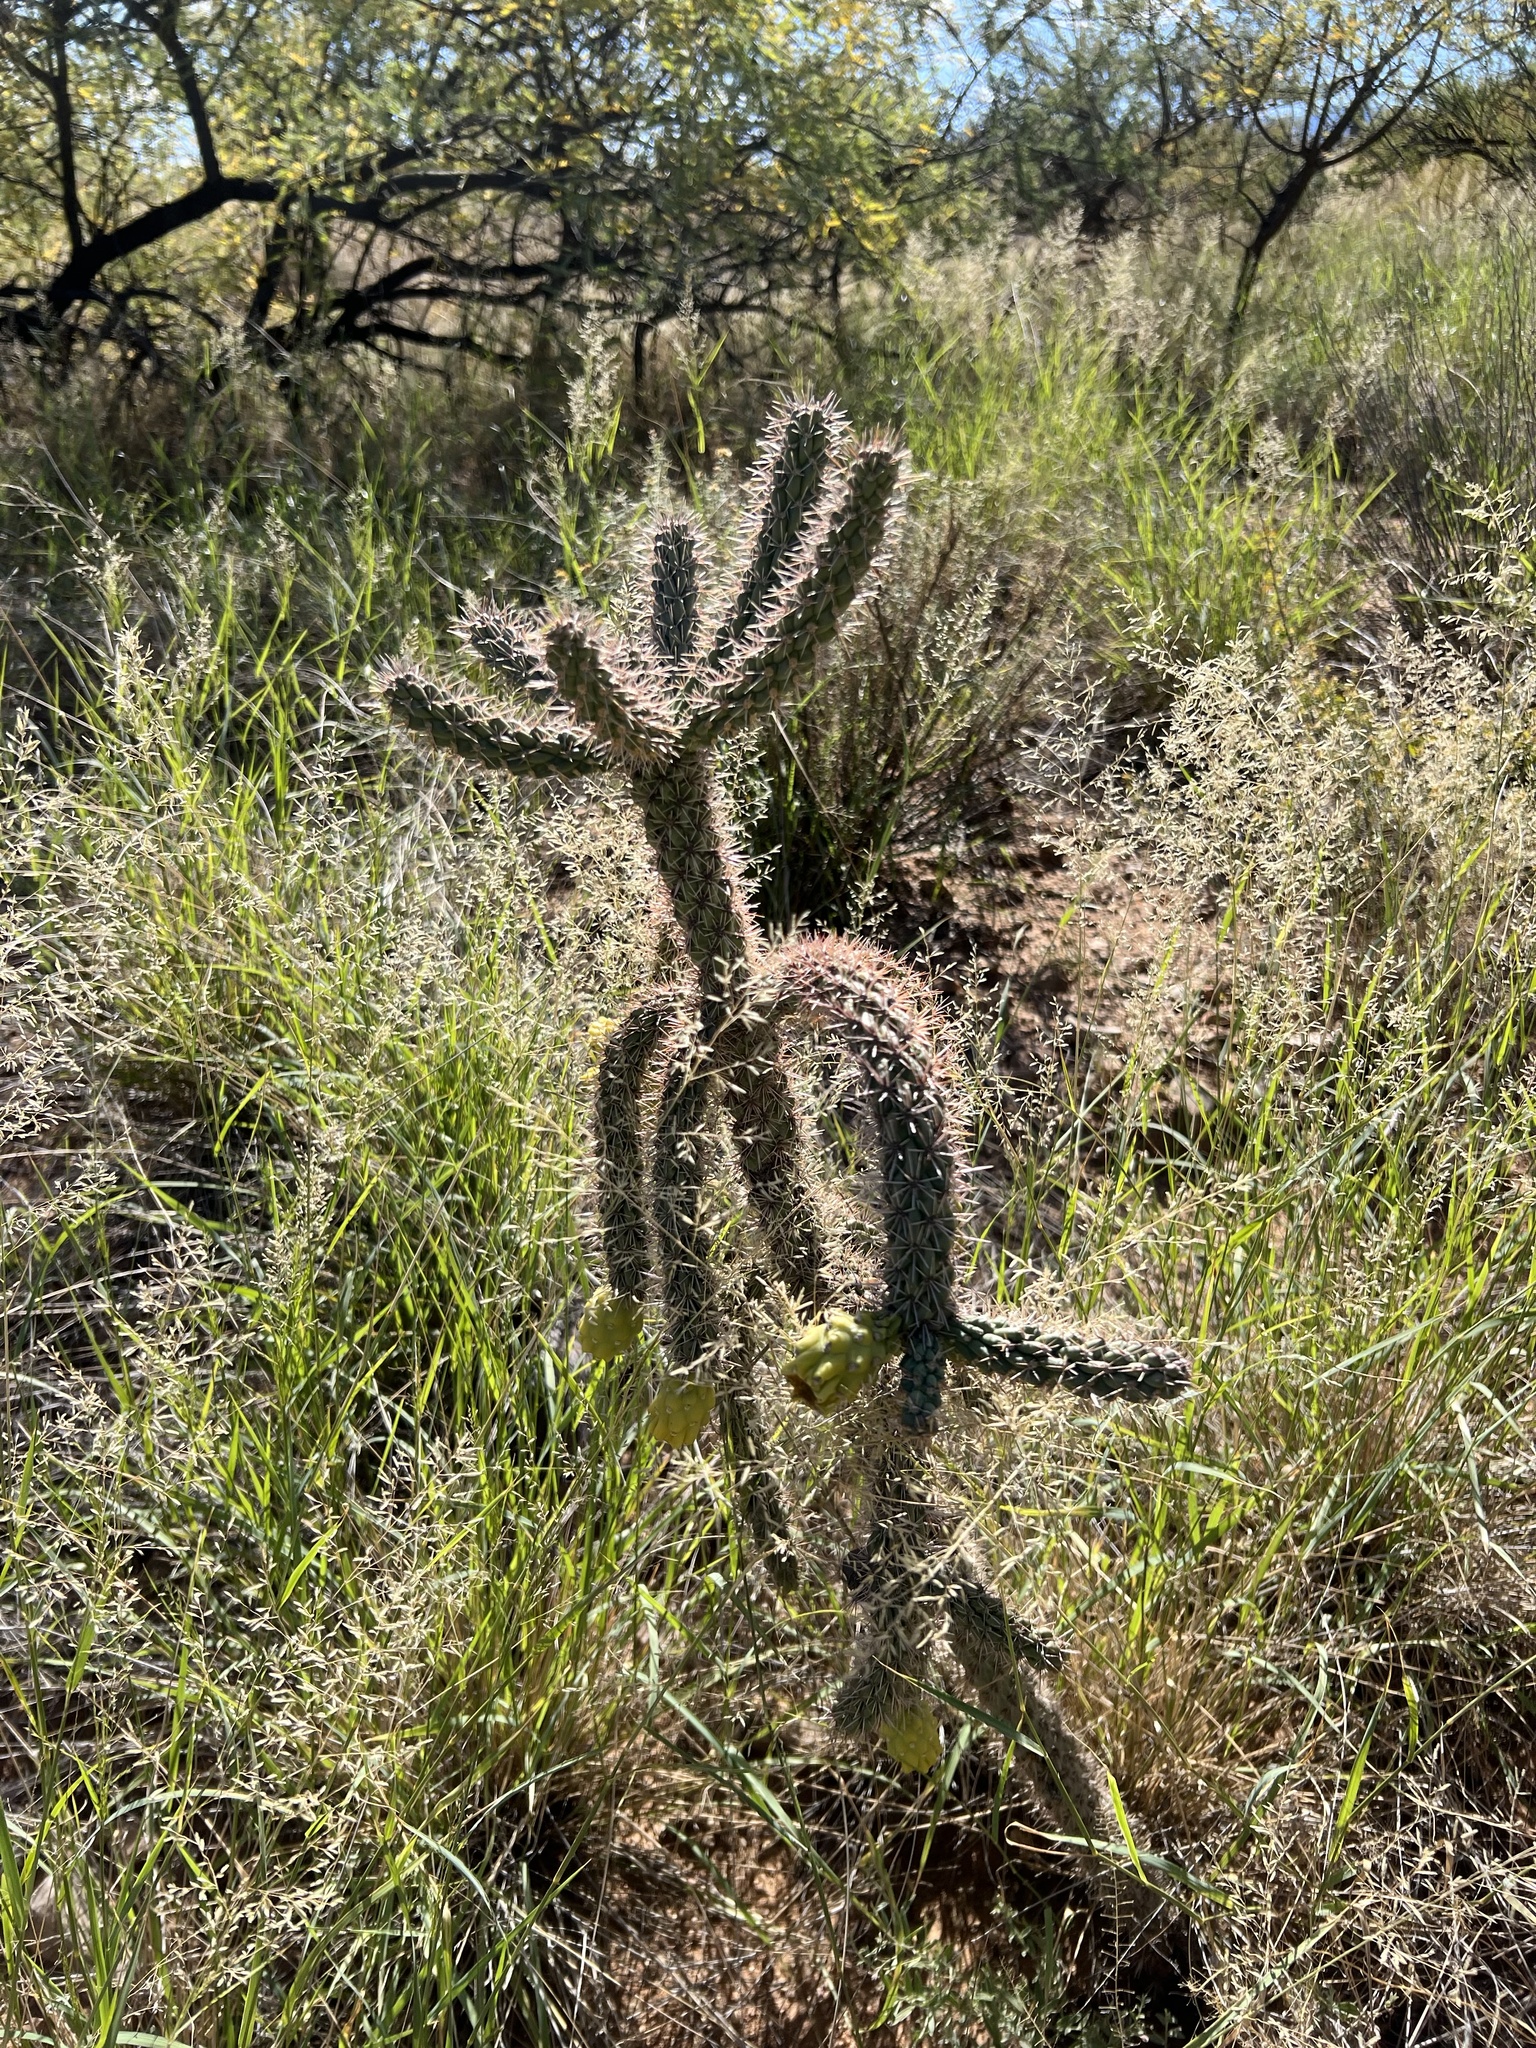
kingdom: Plantae
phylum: Tracheophyta
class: Magnoliopsida
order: Caryophyllales
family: Cactaceae
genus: Cylindropuntia
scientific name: Cylindropuntia imbricata
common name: Candelabrum cactus
